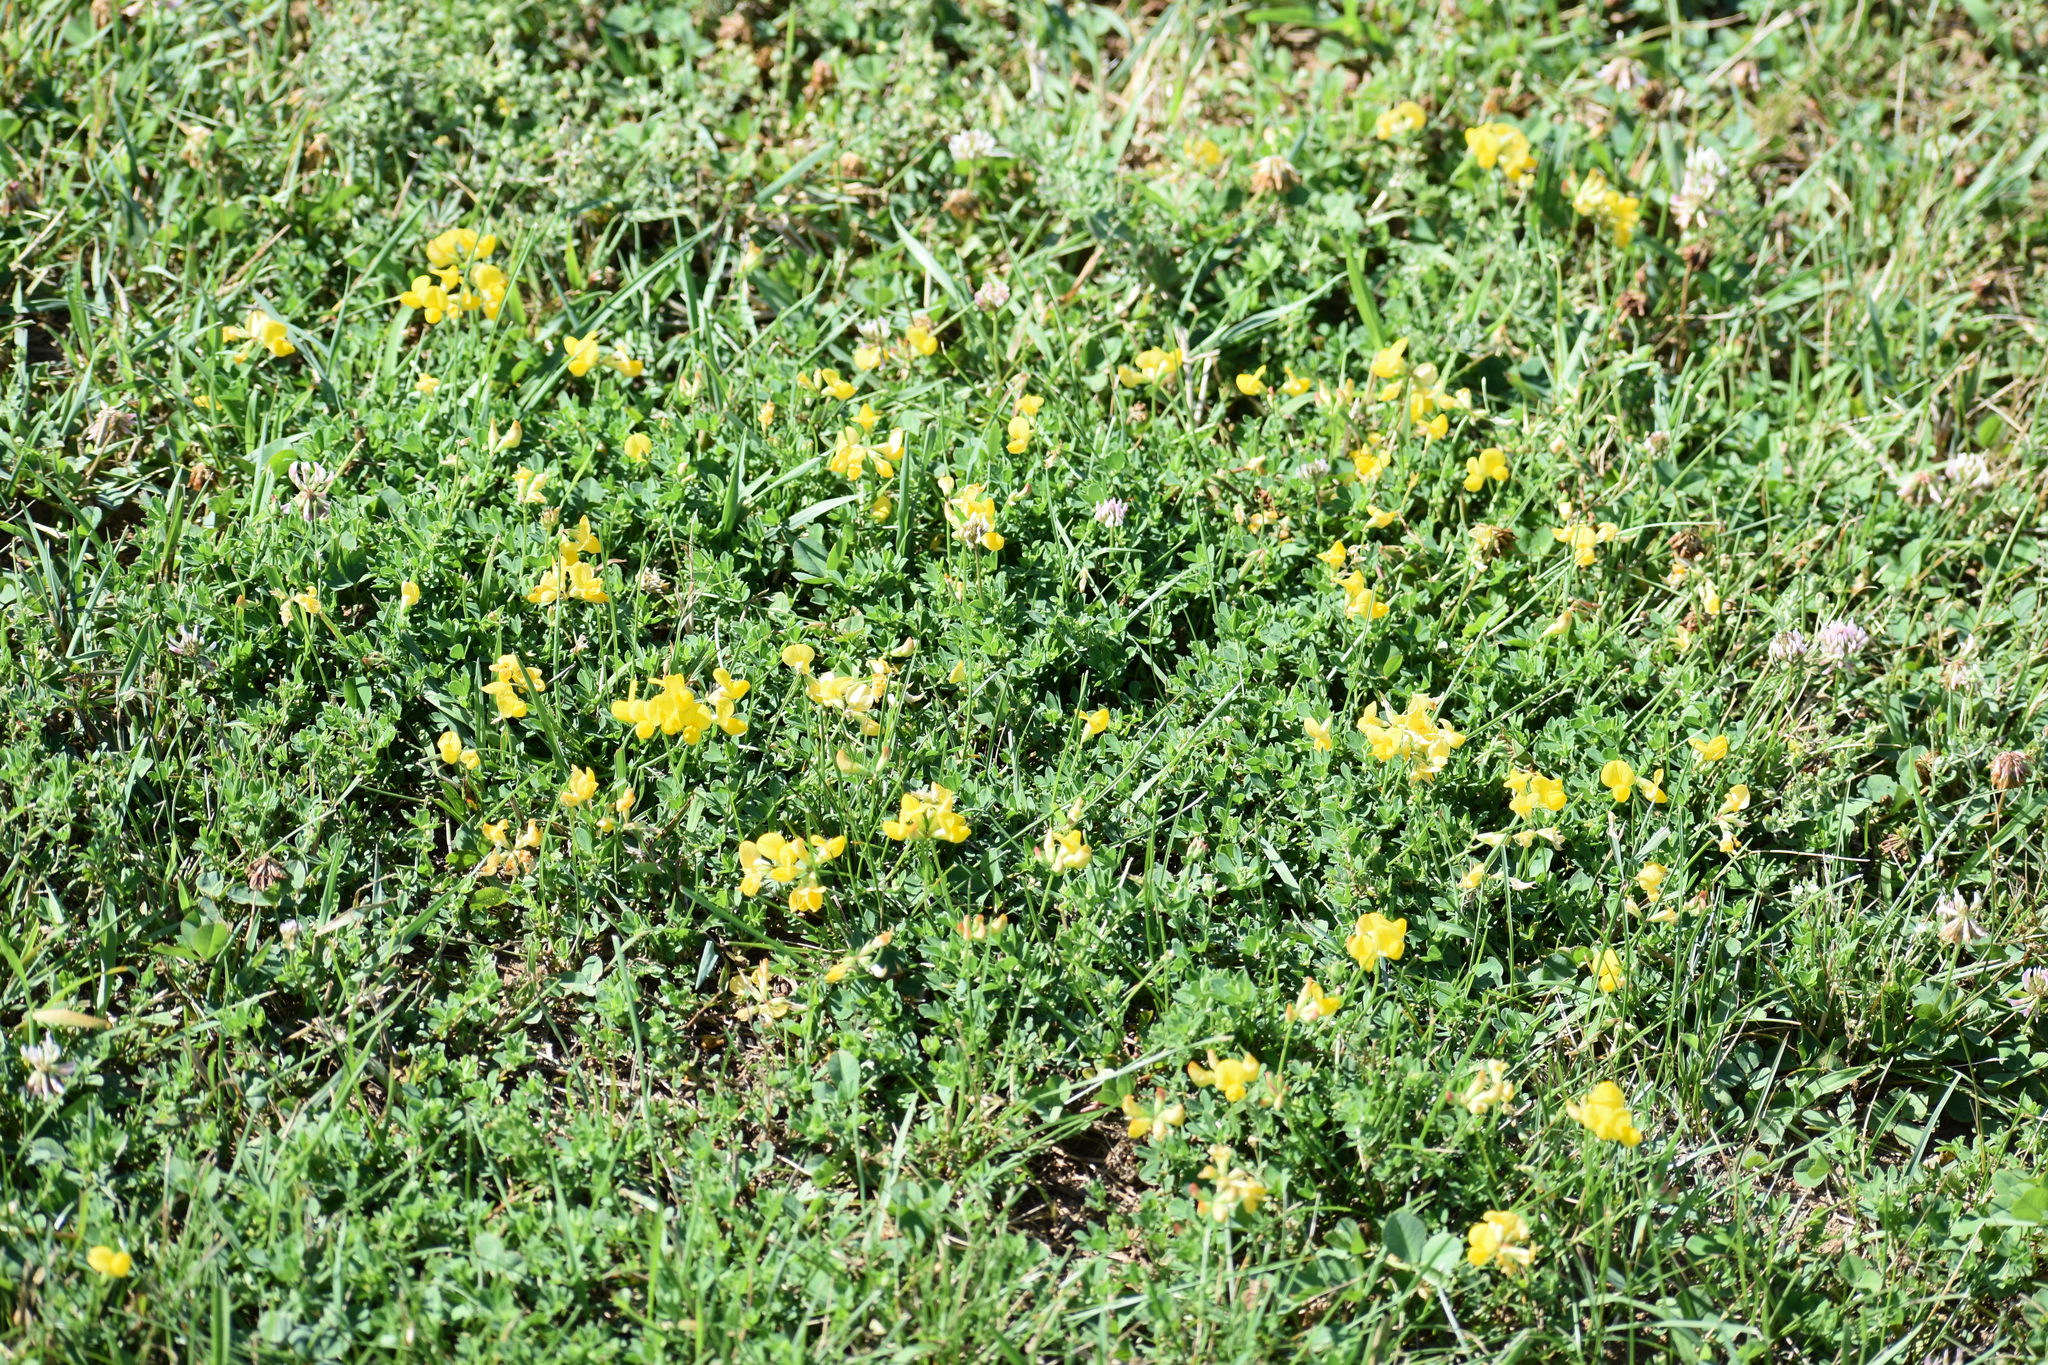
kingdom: Plantae
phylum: Tracheophyta
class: Magnoliopsida
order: Fabales
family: Fabaceae
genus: Lotus
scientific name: Lotus corniculatus
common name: Common bird's-foot-trefoil
